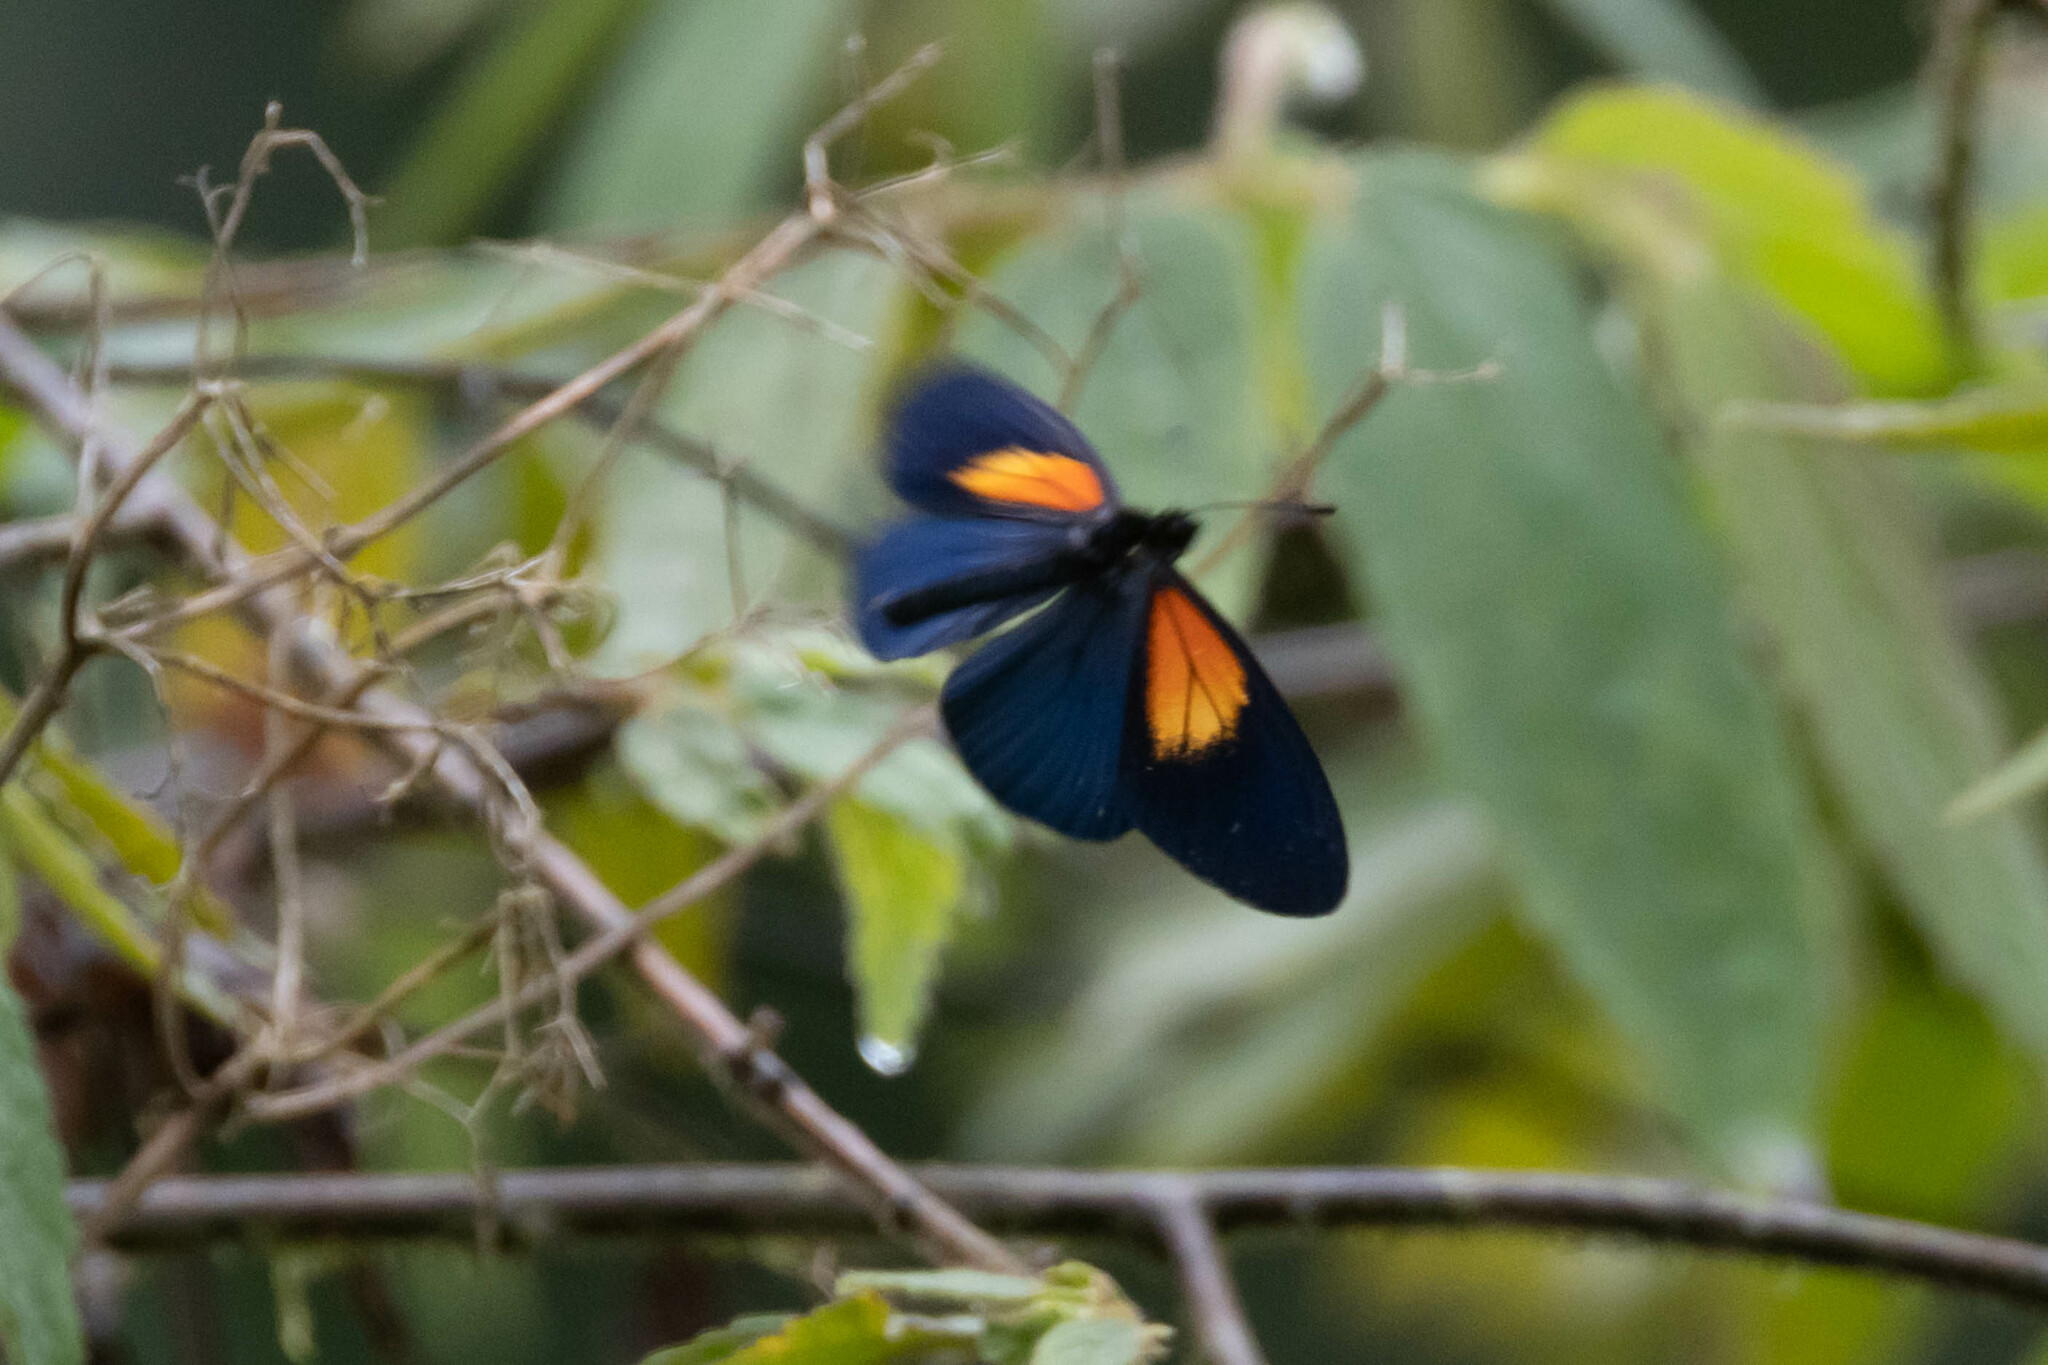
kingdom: Animalia
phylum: Arthropoda
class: Insecta
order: Lepidoptera
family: Nymphalidae
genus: Acraea
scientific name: Acraea Altinote ozomene
